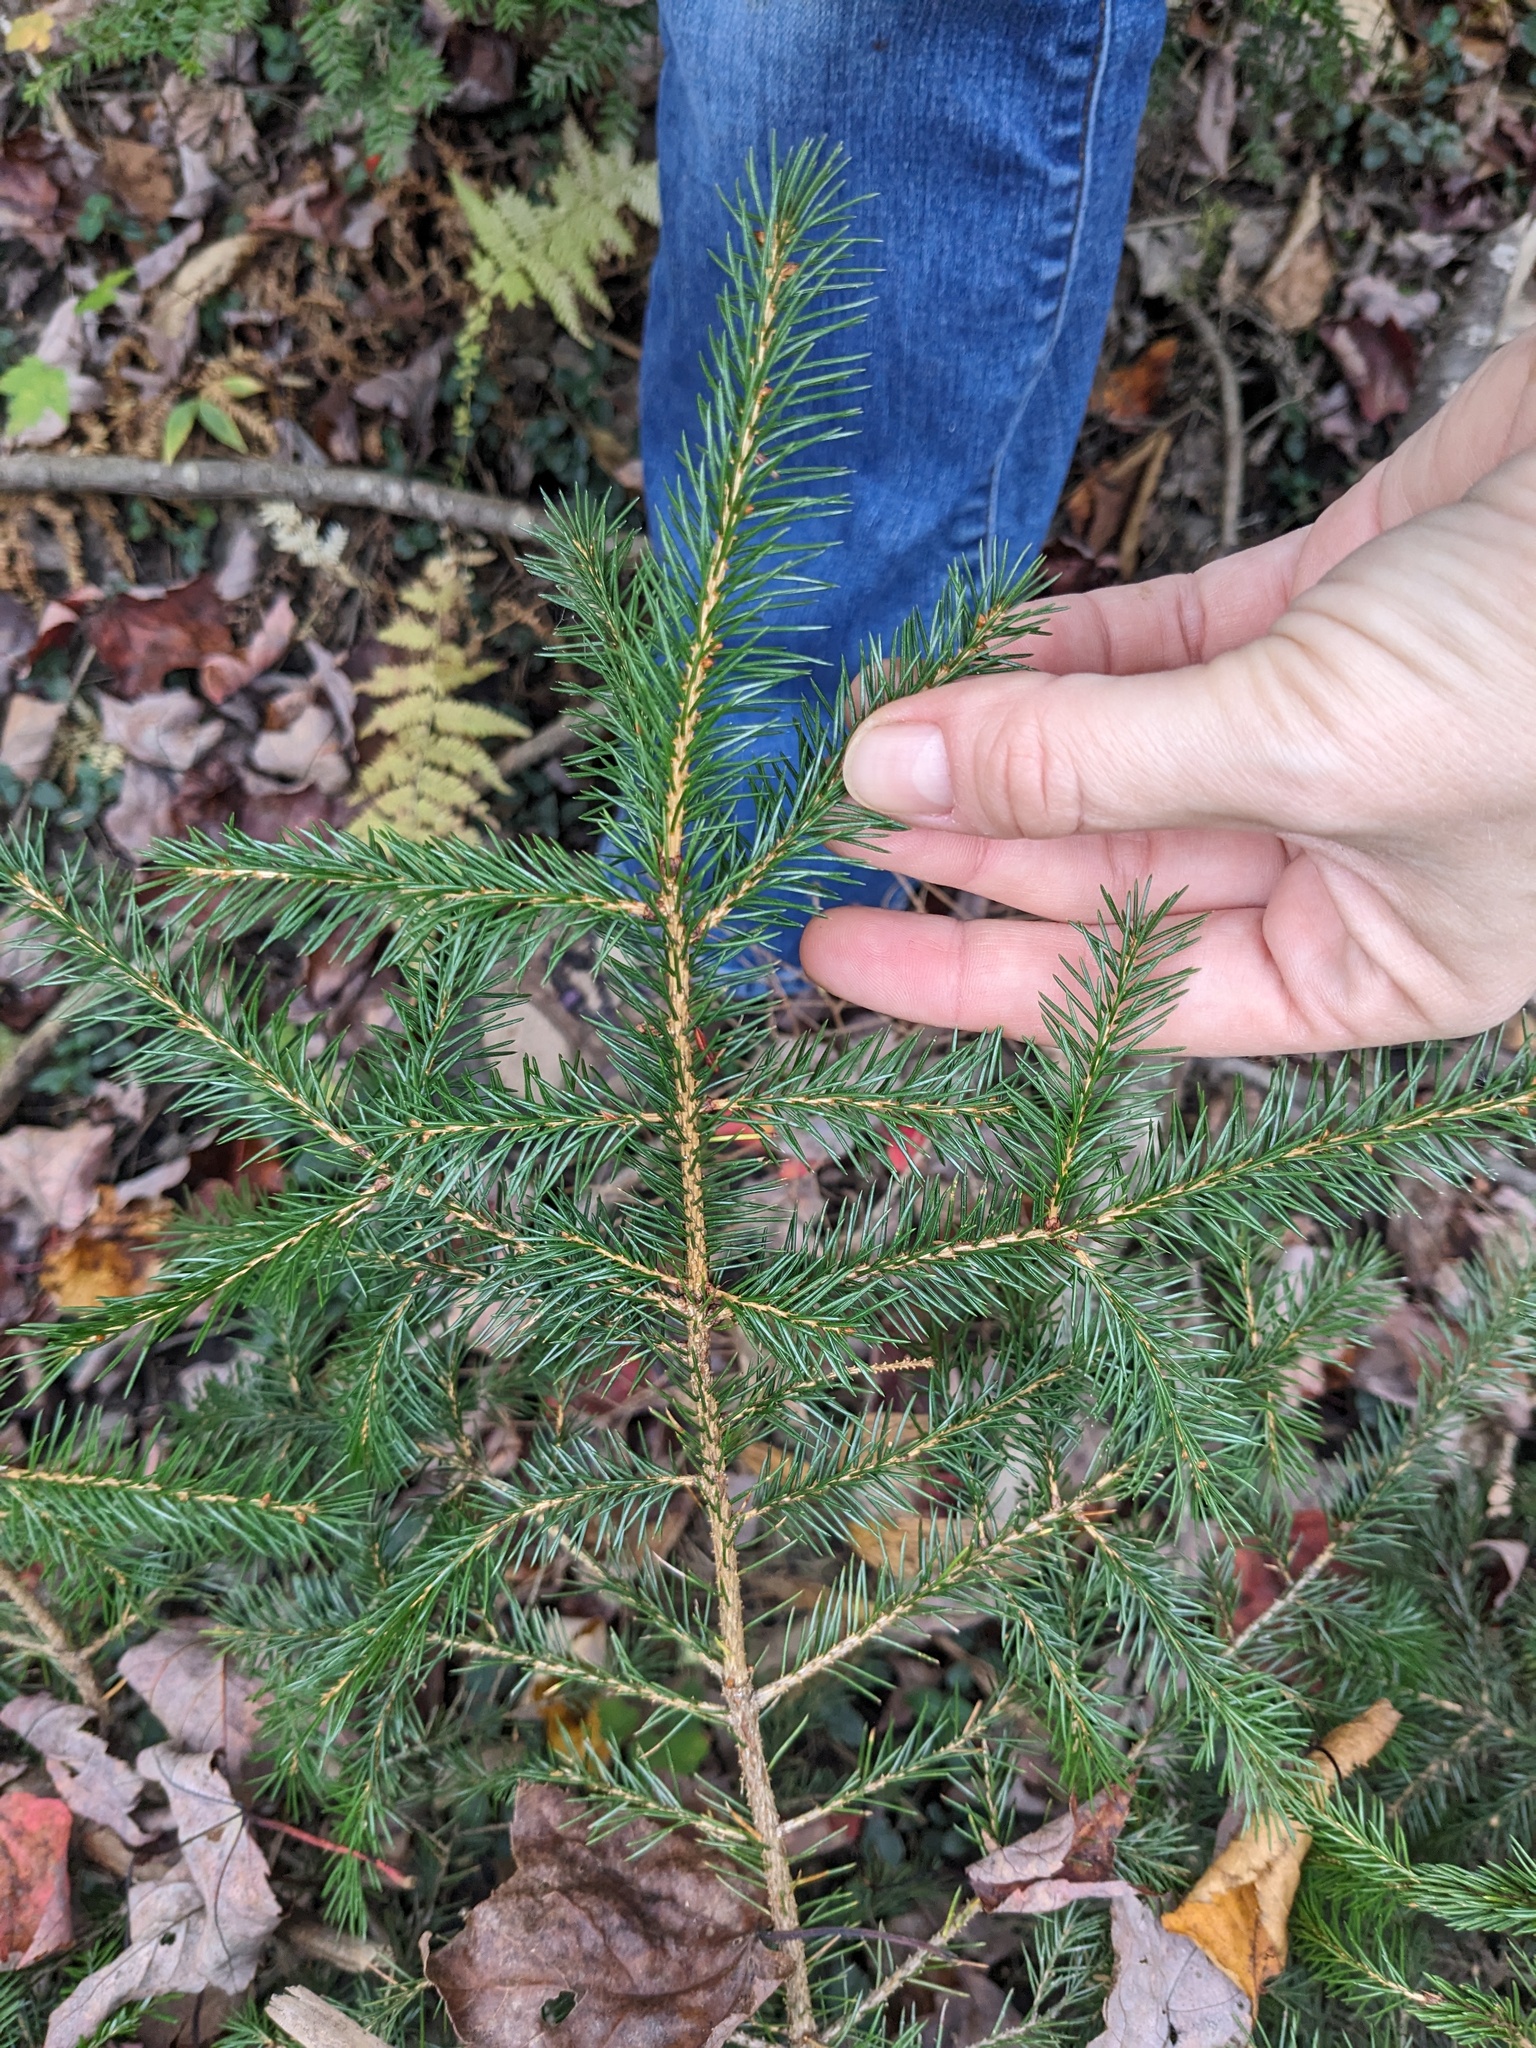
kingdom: Plantae
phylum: Tracheophyta
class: Pinopsida
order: Pinales
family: Pinaceae
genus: Picea
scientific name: Picea rubens
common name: Red spruce
